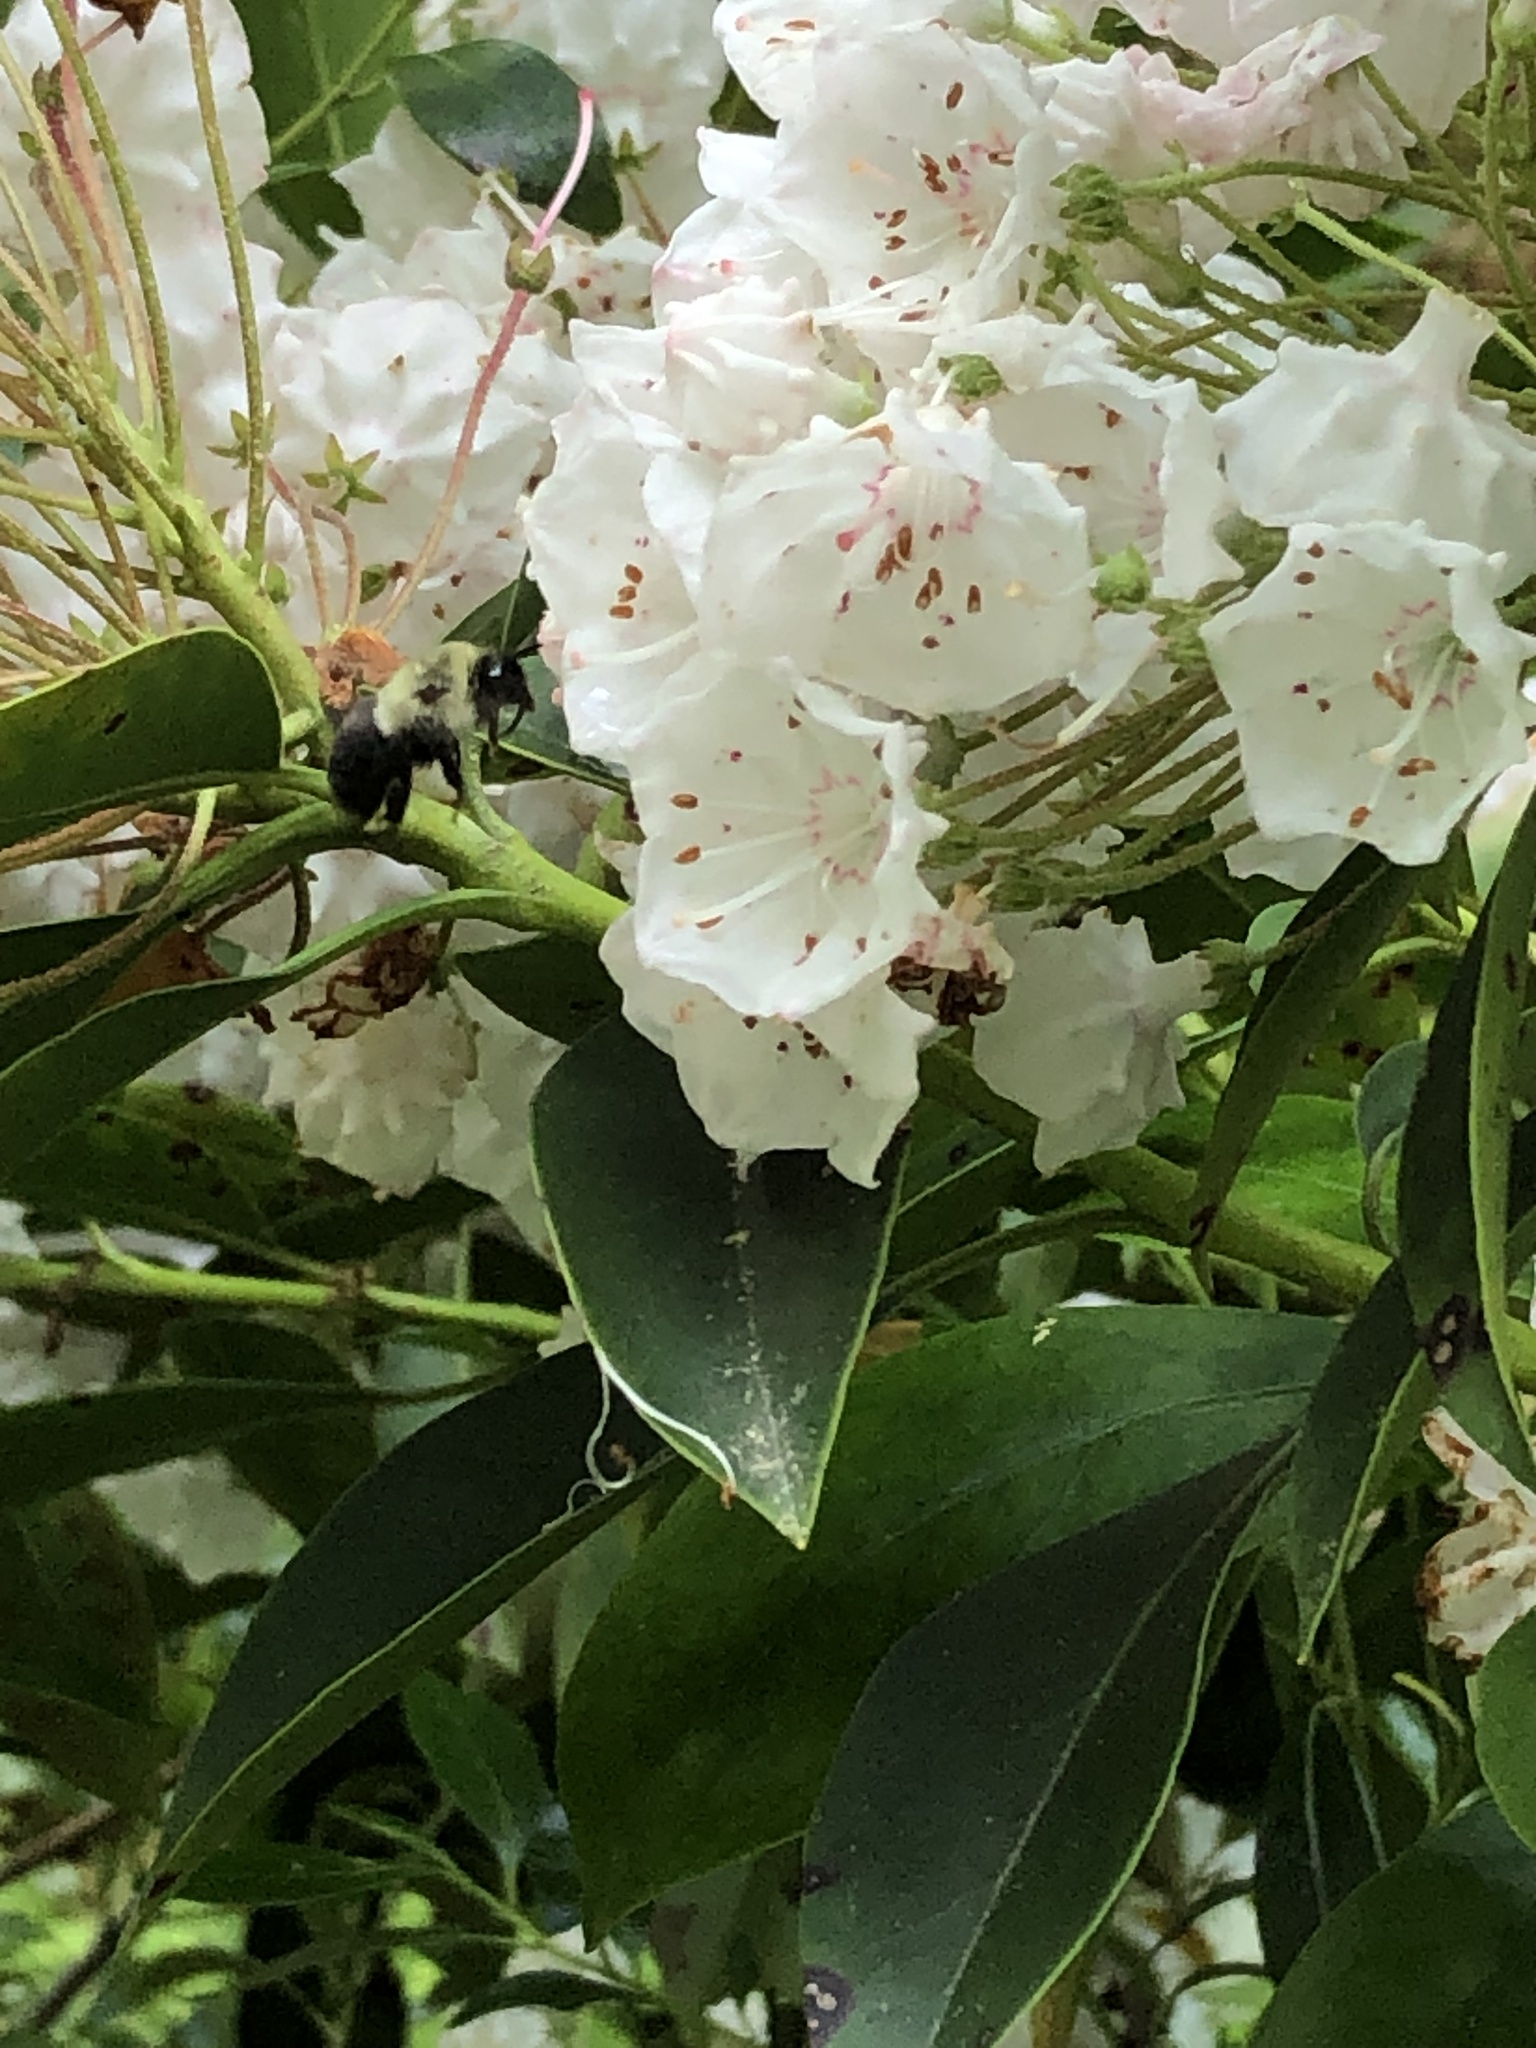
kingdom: Animalia
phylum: Arthropoda
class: Insecta
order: Hymenoptera
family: Apidae
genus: Bombus
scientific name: Bombus impatiens
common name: Common eastern bumble bee
